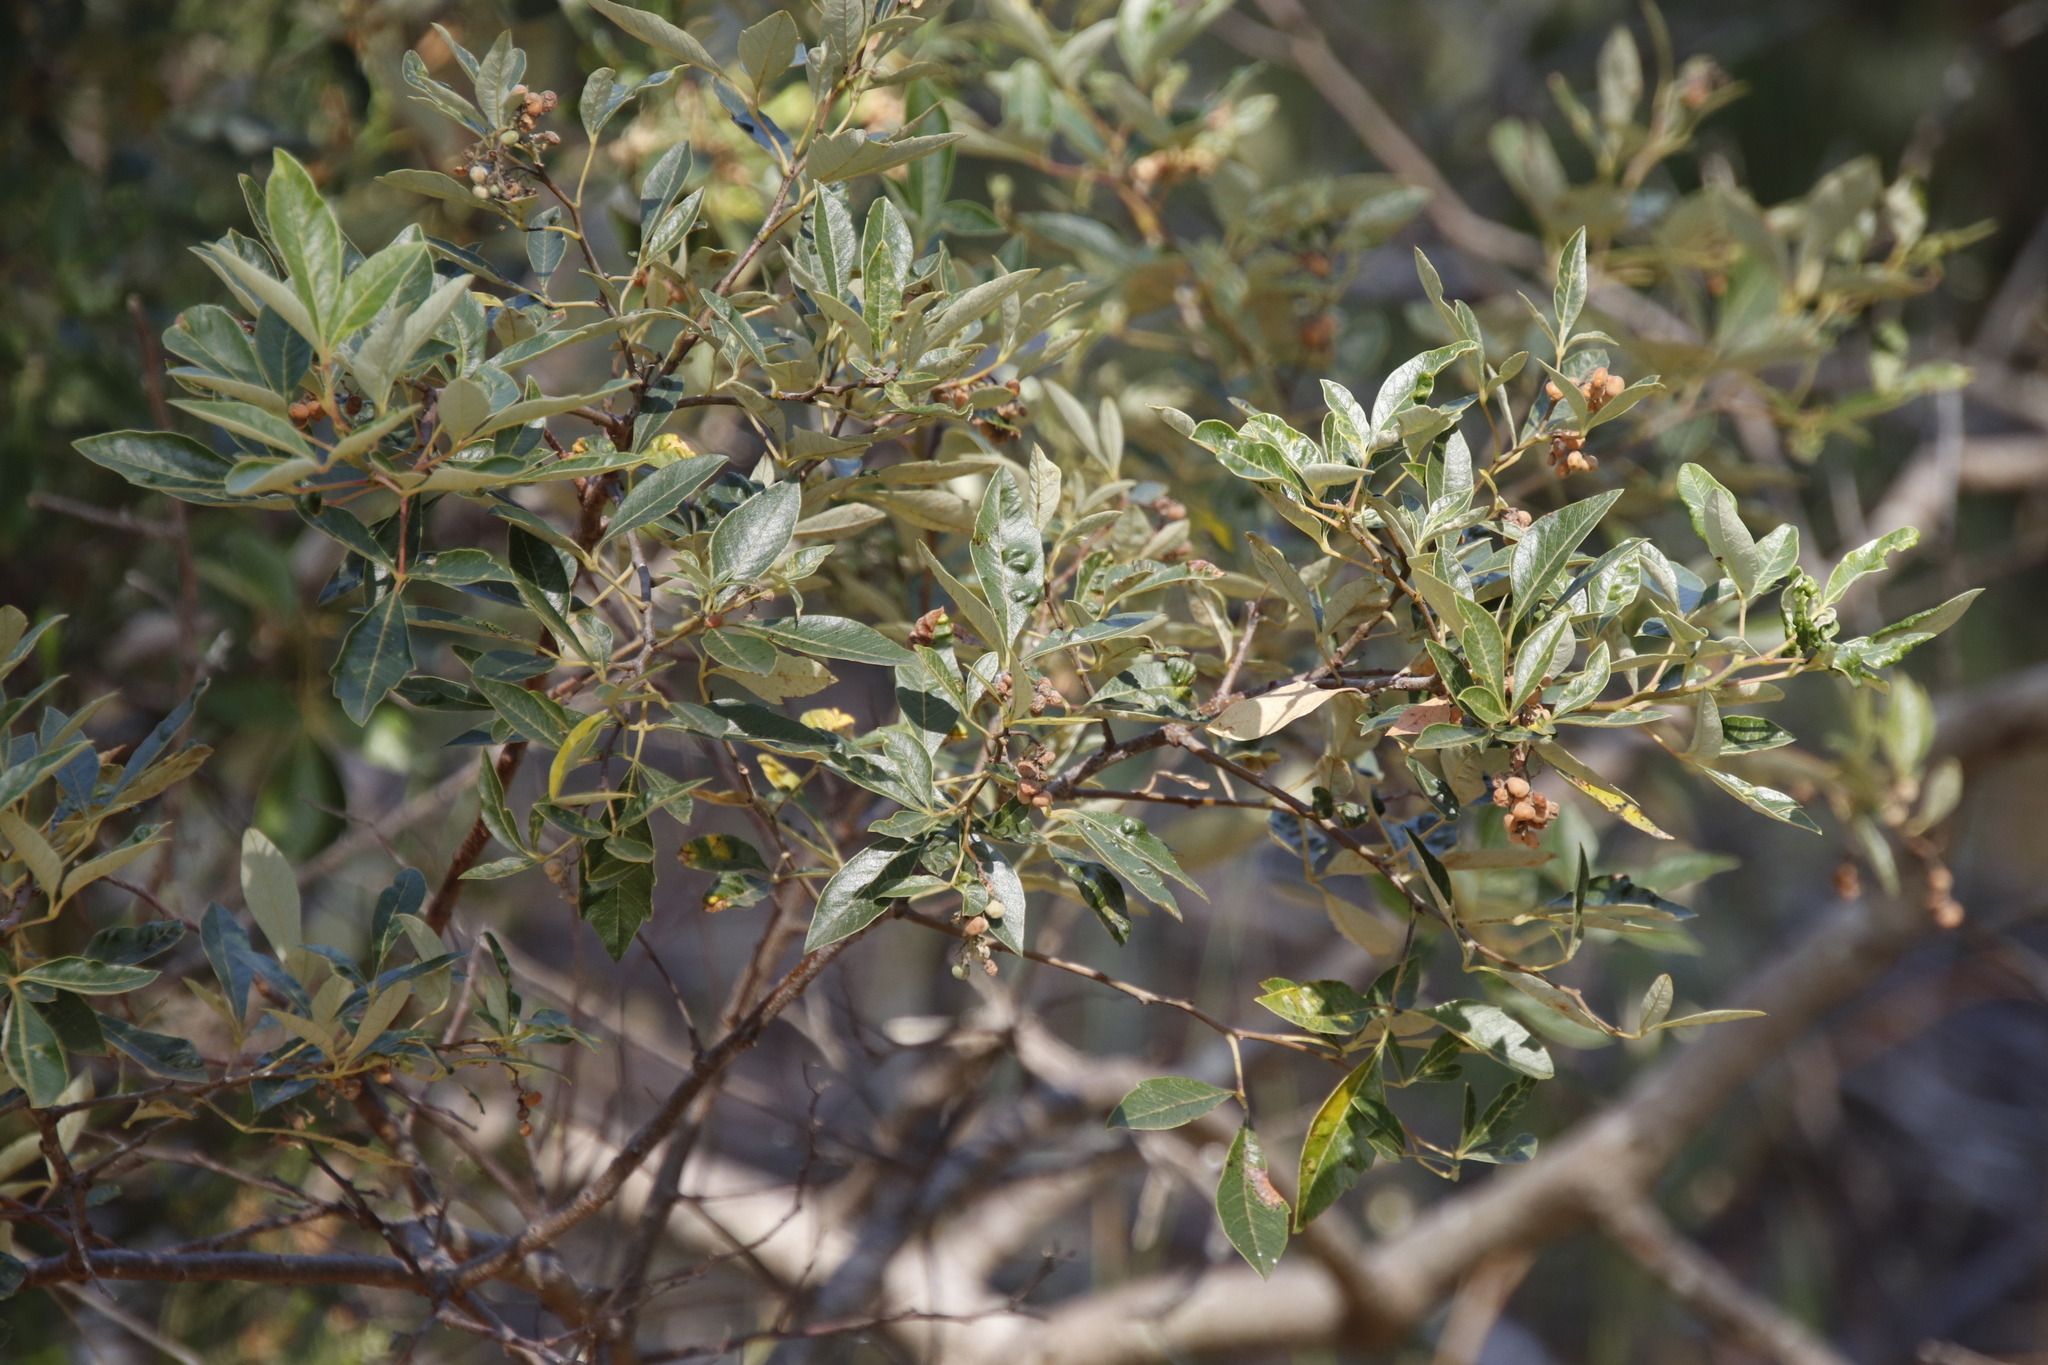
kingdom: Plantae
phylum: Tracheophyta
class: Magnoliopsida
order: Sapindales
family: Anacardiaceae
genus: Searsia
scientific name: Searsia tomentosa
